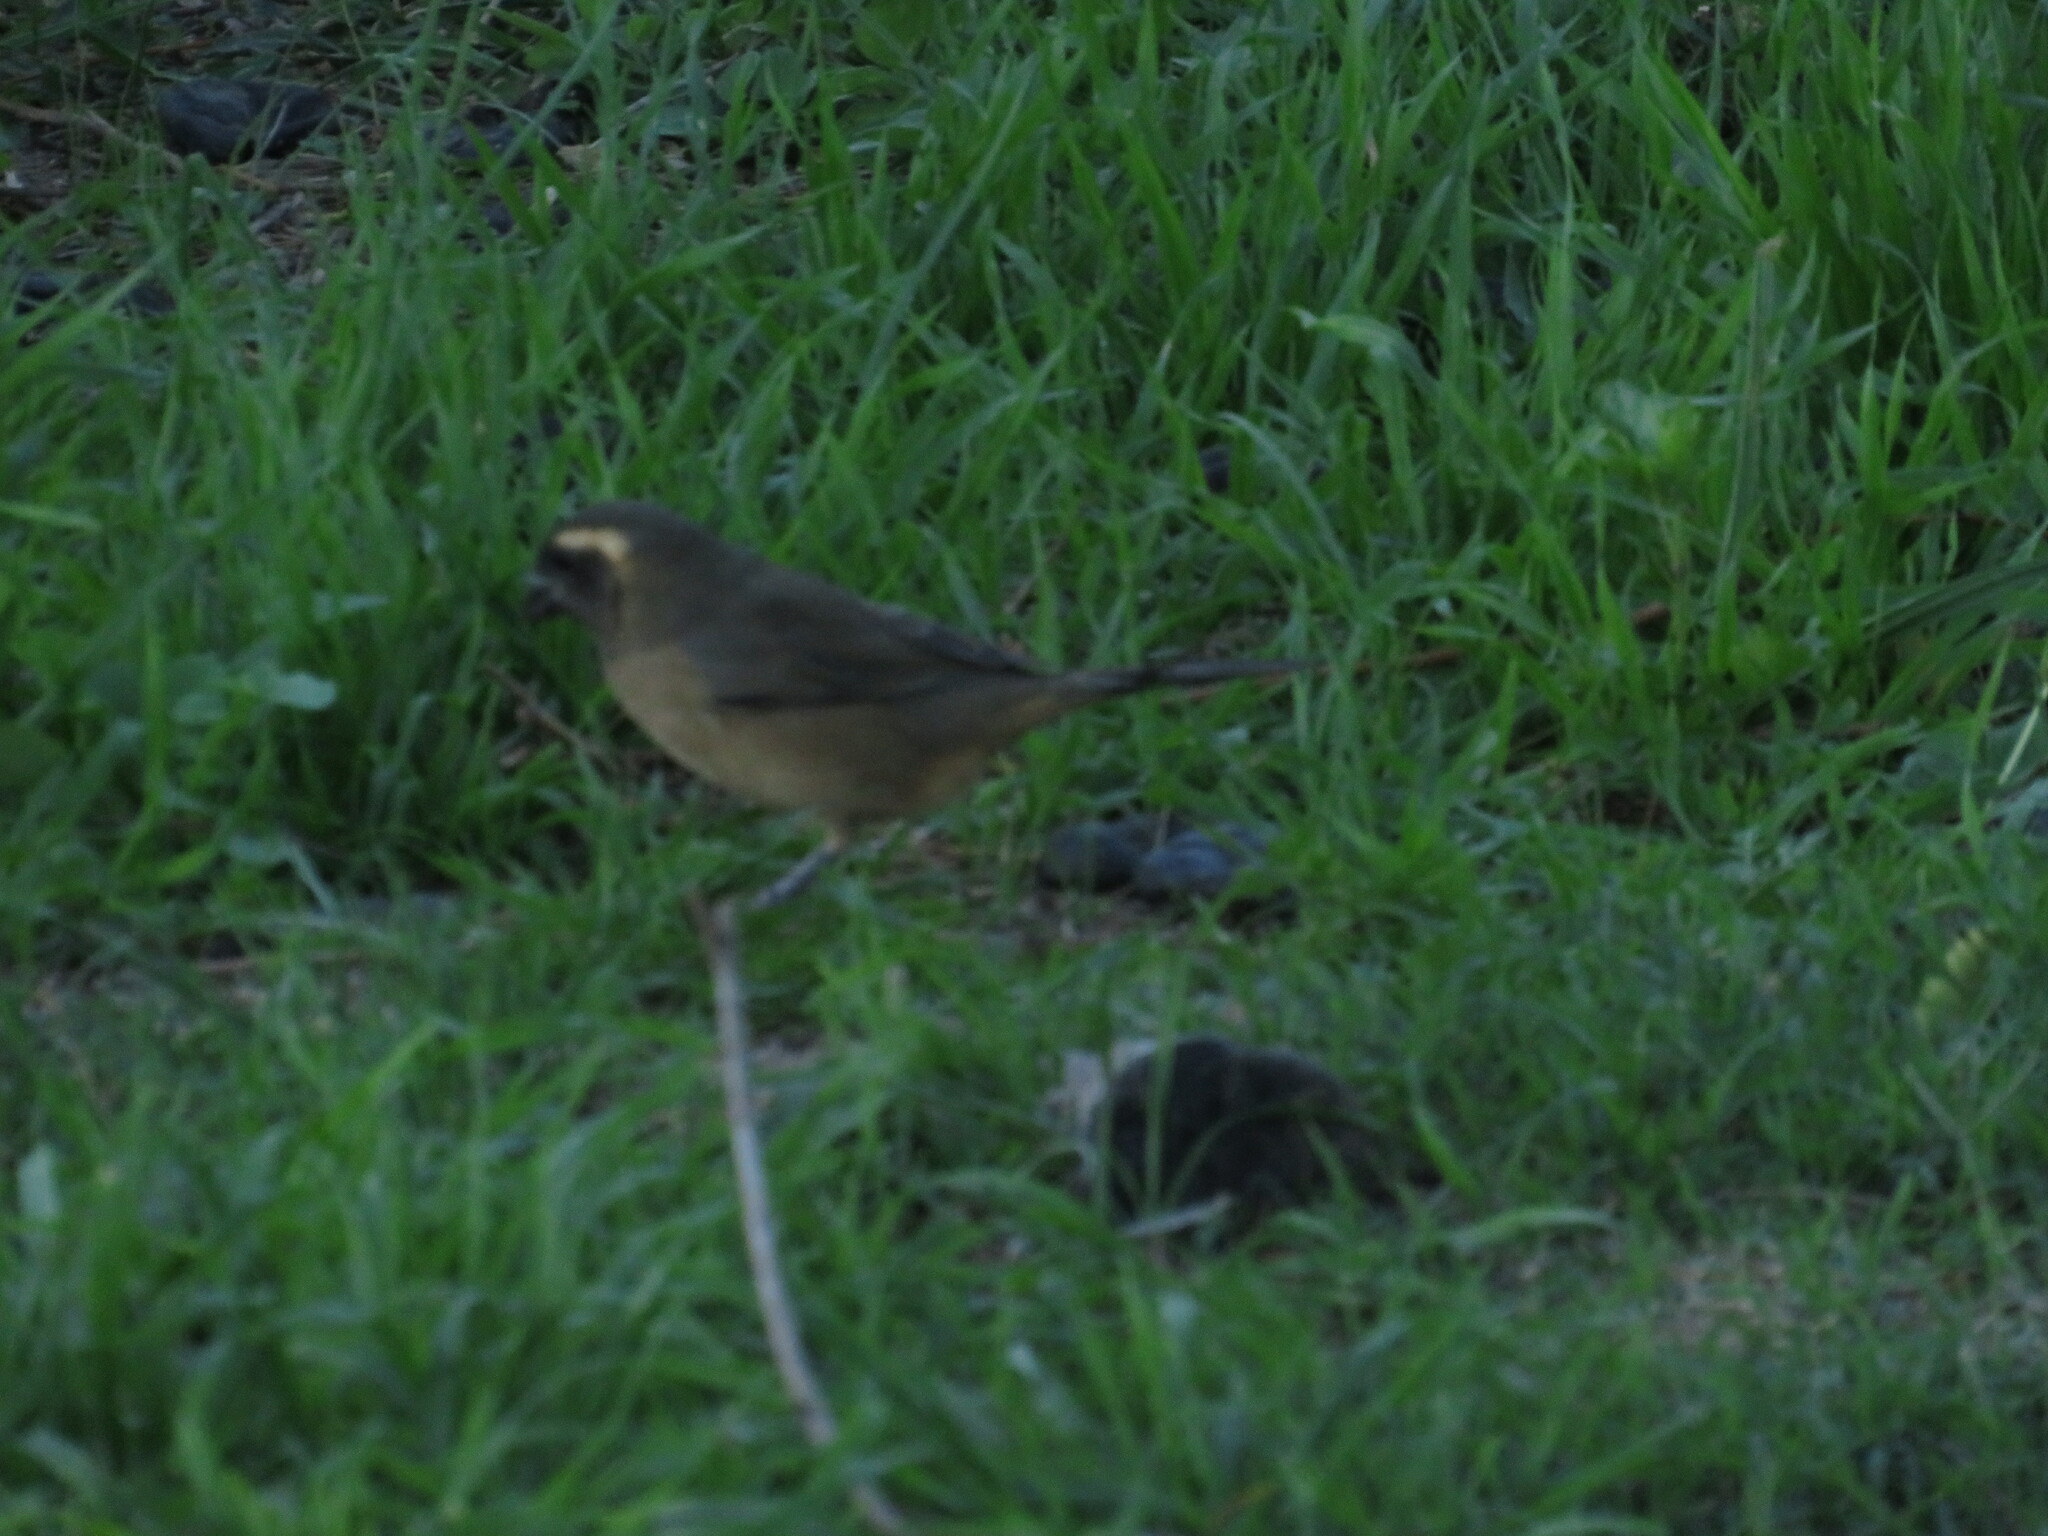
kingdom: Animalia
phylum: Chordata
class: Aves
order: Passeriformes
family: Thraupidae
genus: Saltator
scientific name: Saltator aurantiirostris
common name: Golden-billed saltator
